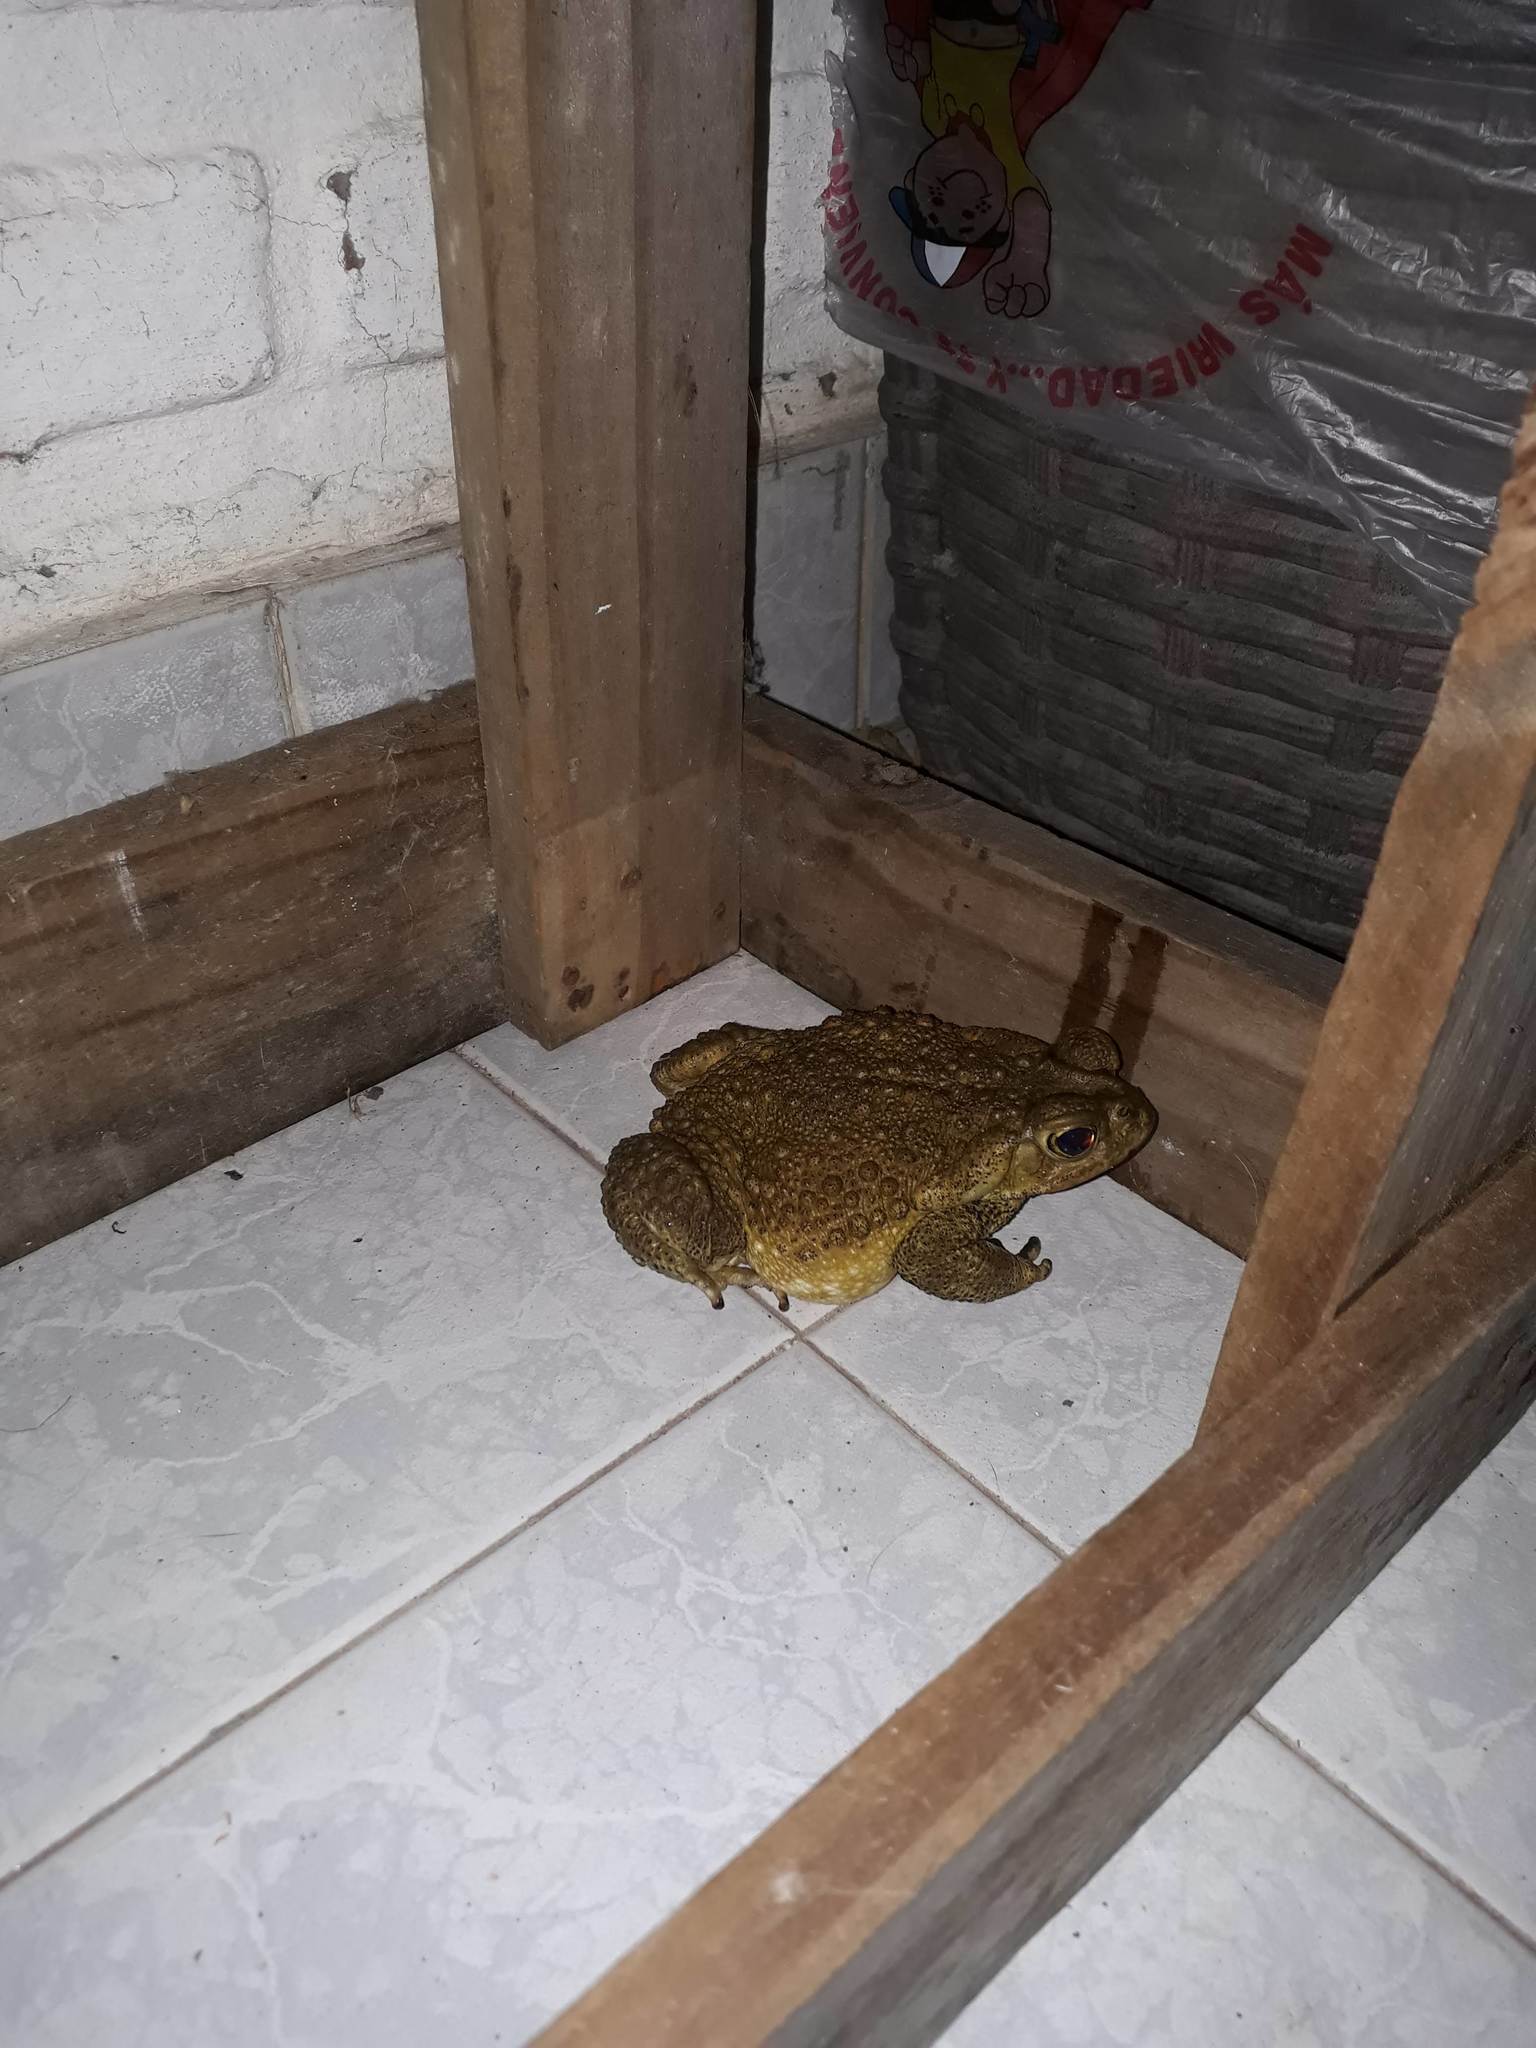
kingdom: Animalia
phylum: Chordata
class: Amphibia
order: Anura
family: Bufonidae
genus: Rhinella
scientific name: Rhinella arenarum
